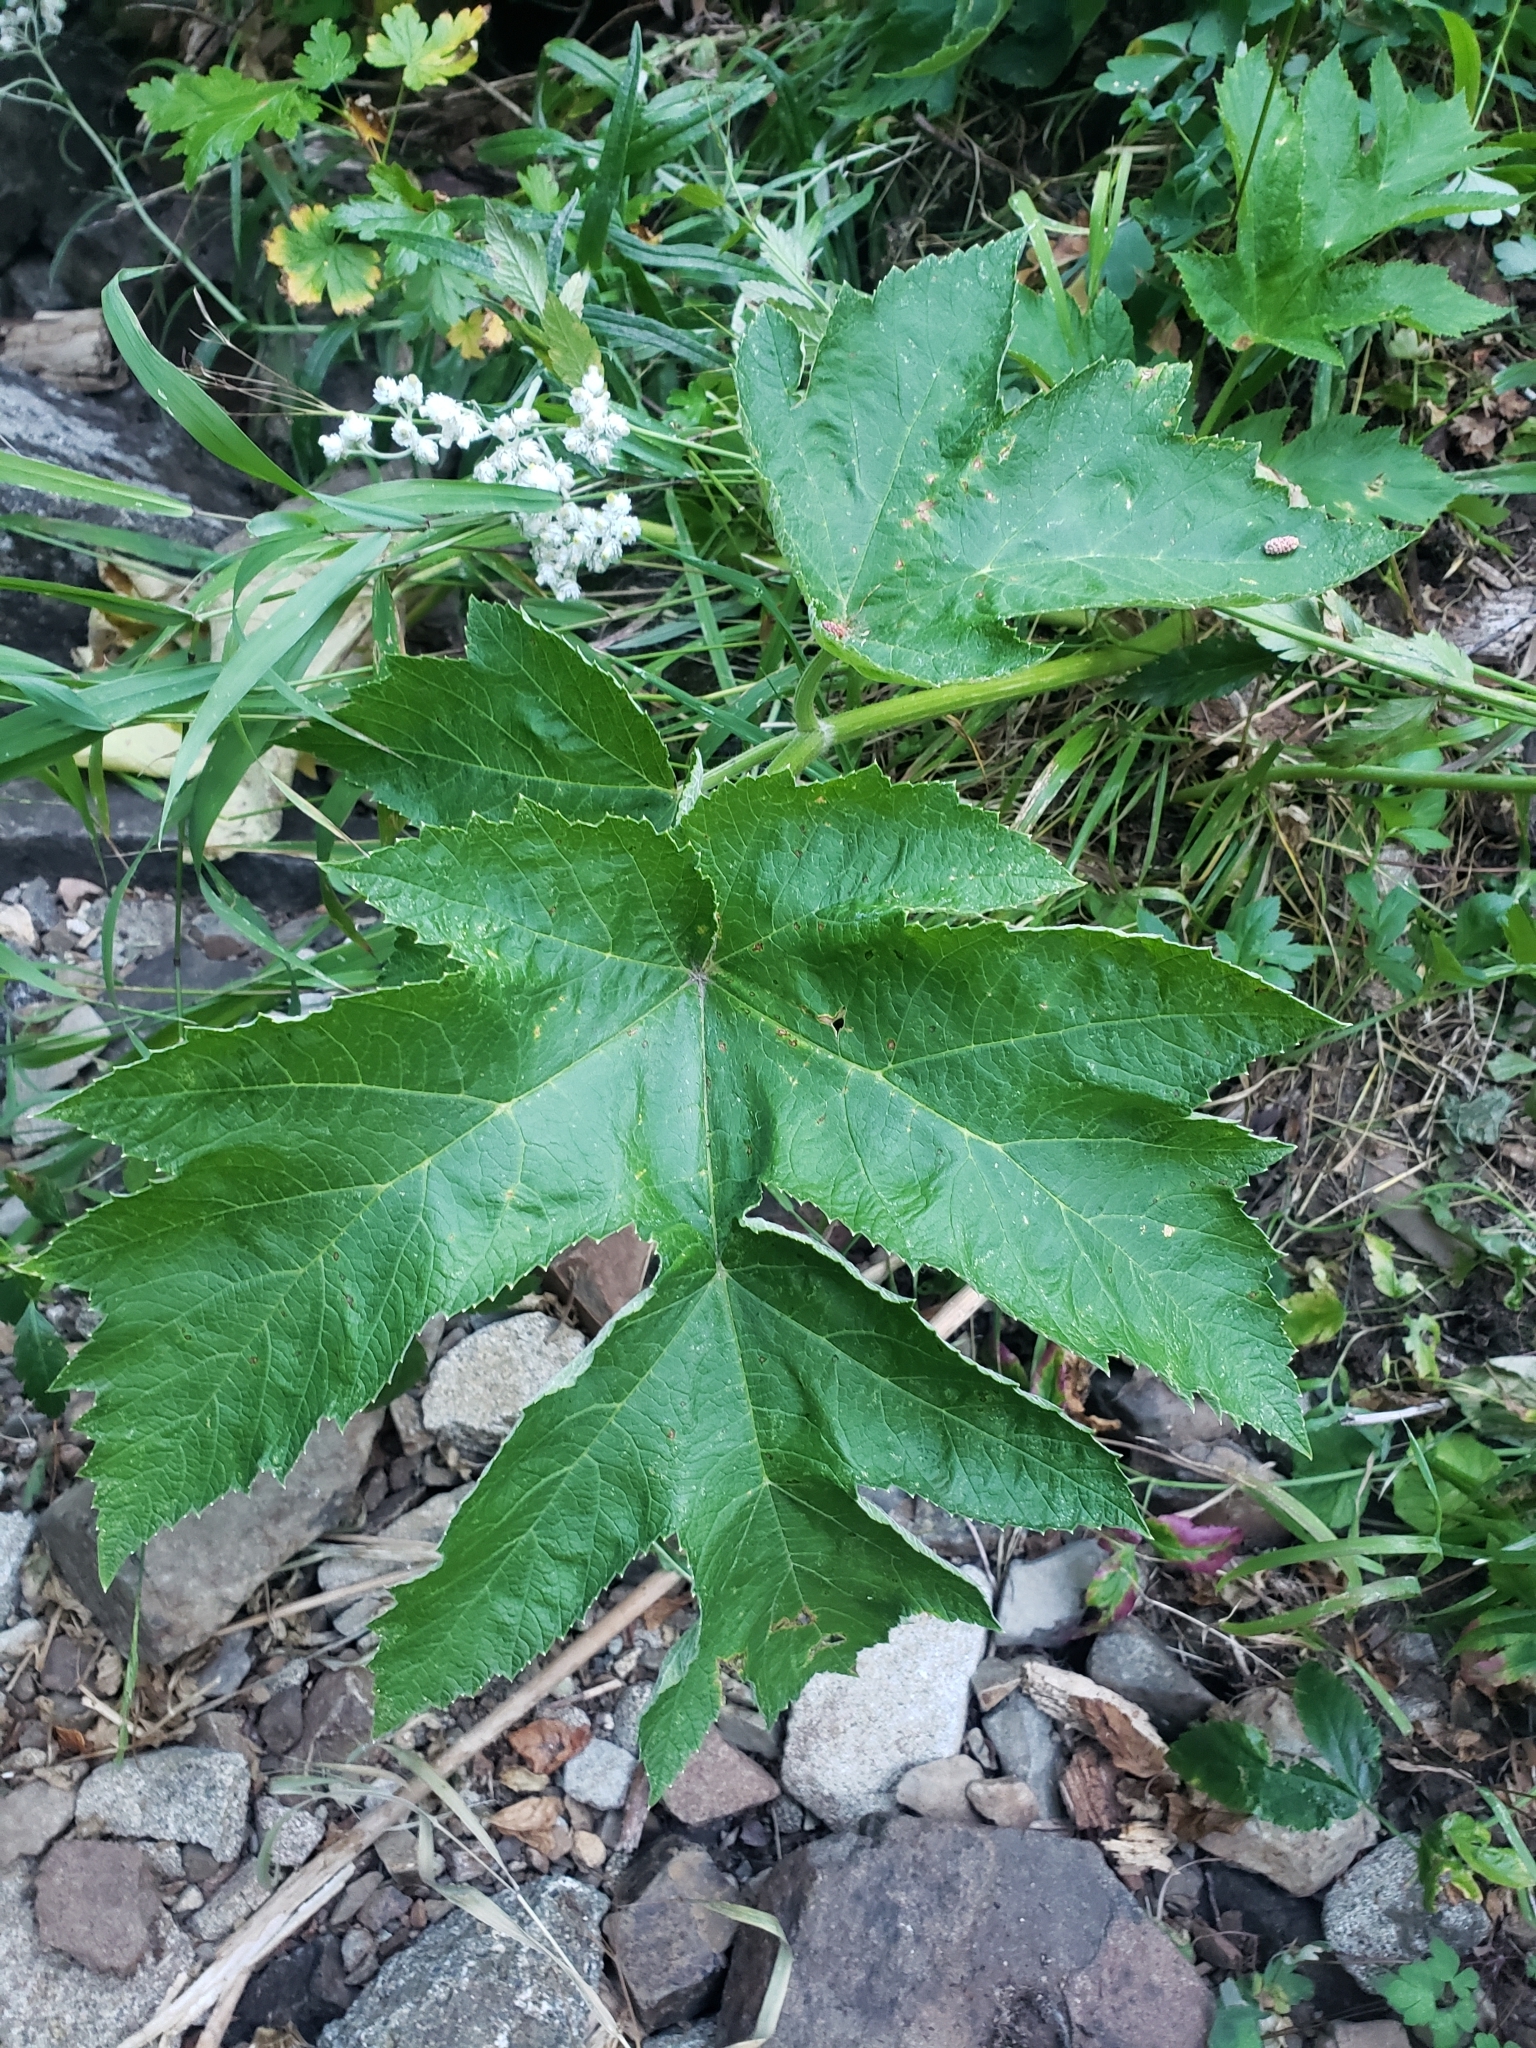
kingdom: Plantae
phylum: Tracheophyta
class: Magnoliopsida
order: Apiales
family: Apiaceae
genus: Heracleum
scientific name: Heracleum maximum
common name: American cow parsnip
